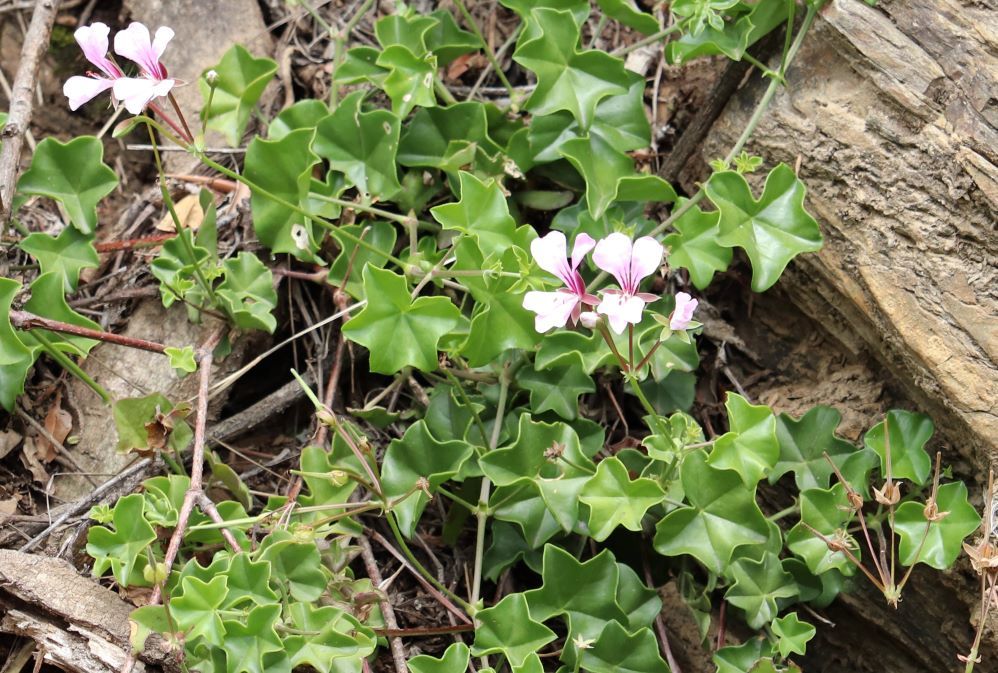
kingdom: Plantae
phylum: Tracheophyta
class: Magnoliopsida
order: Geraniales
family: Geraniaceae
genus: Pelargonium
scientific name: Pelargonium peltatum
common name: Ivyleaf geranium
